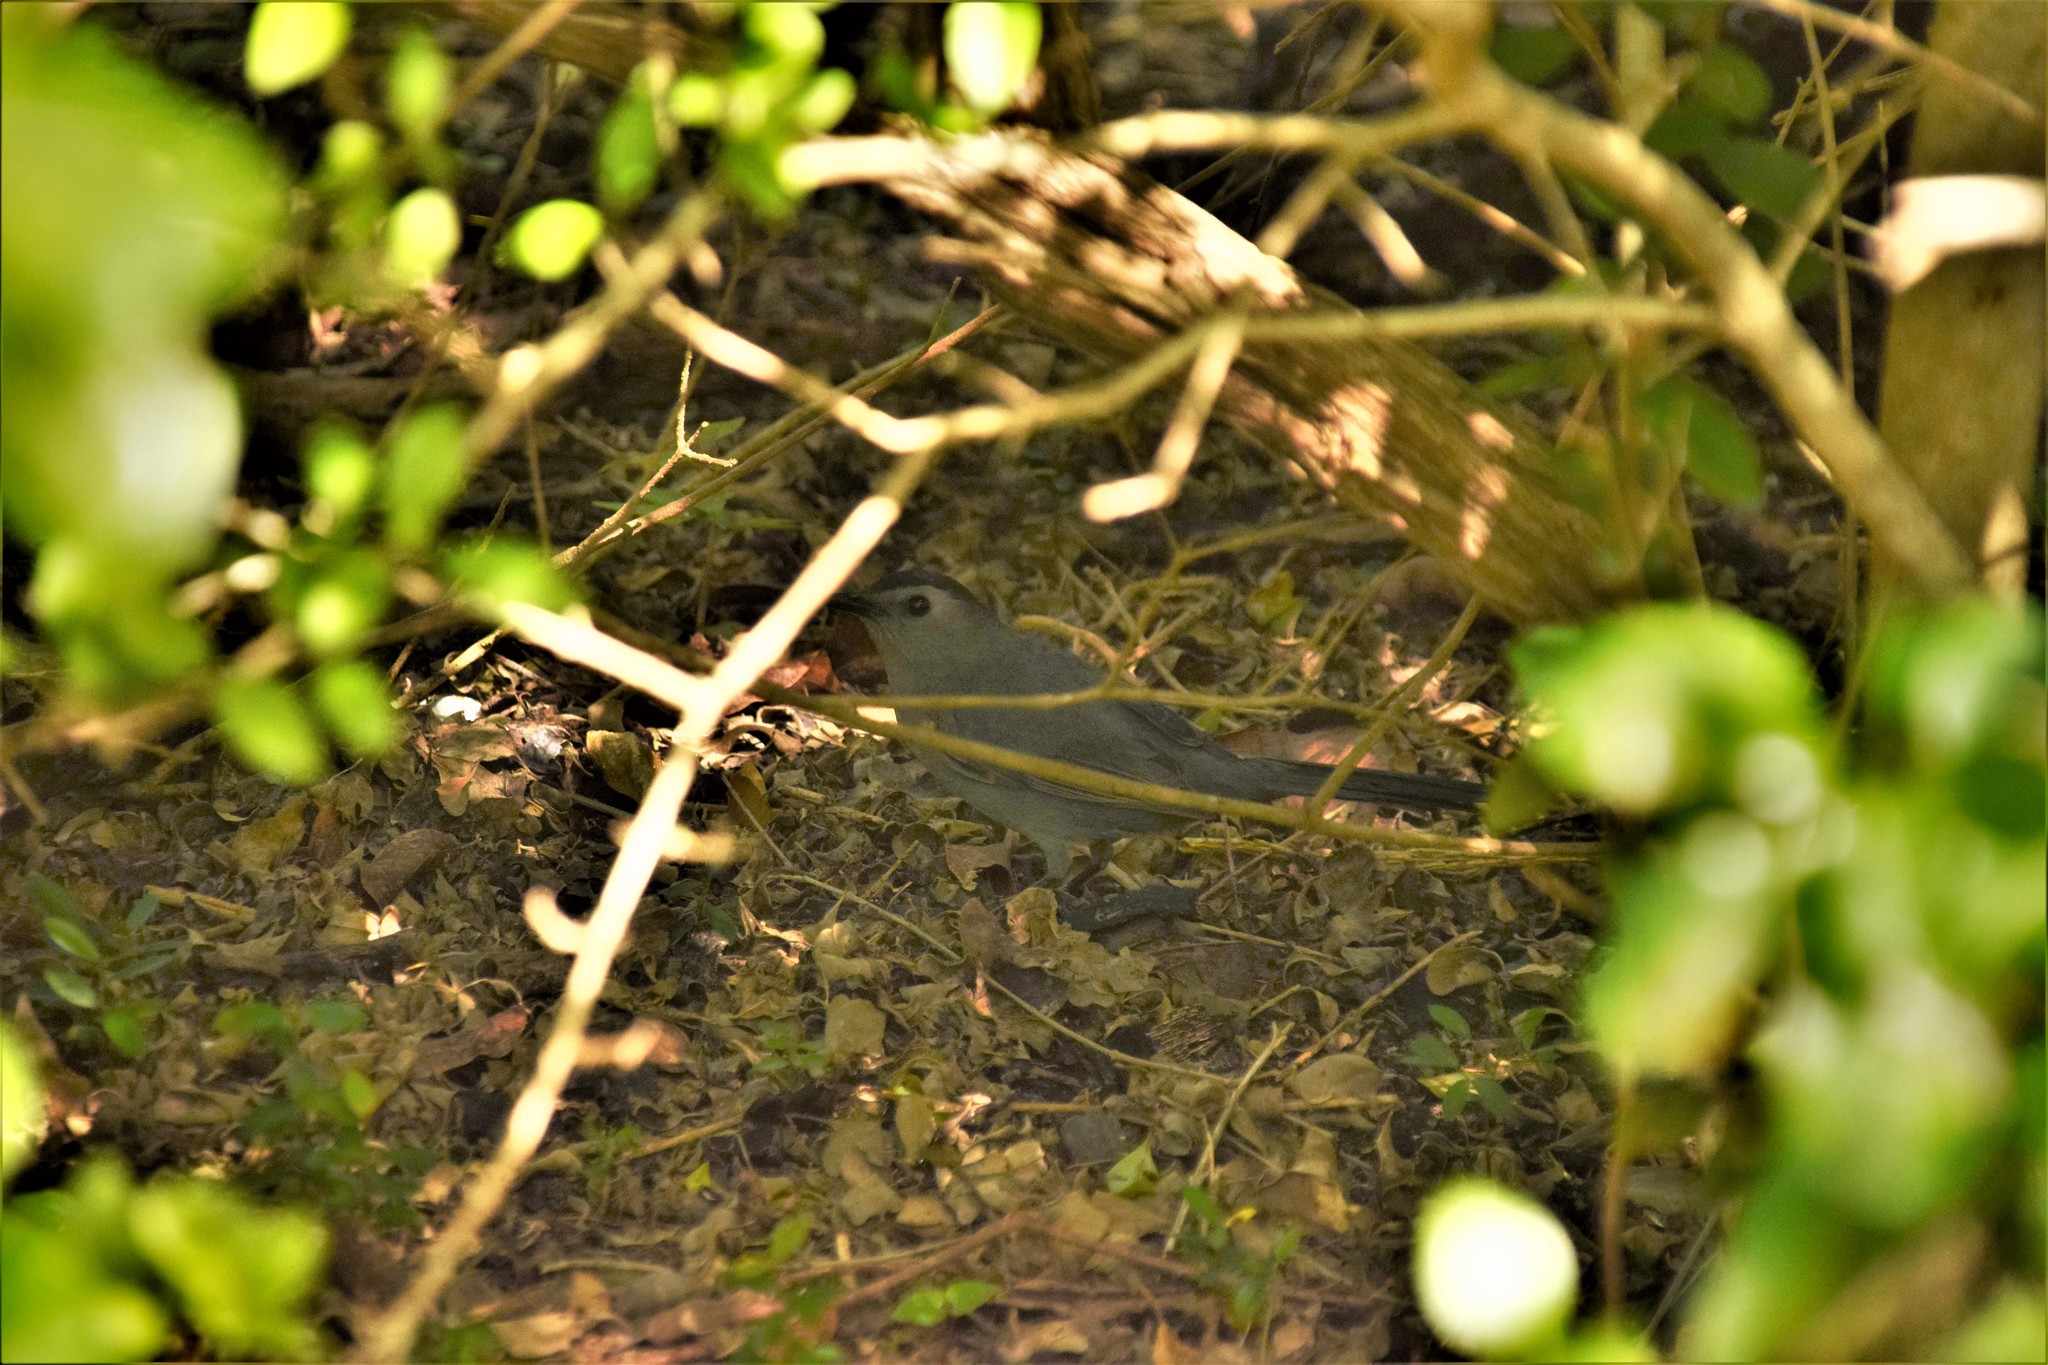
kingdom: Animalia
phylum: Chordata
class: Aves
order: Passeriformes
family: Mimidae
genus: Dumetella
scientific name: Dumetella carolinensis
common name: Gray catbird
